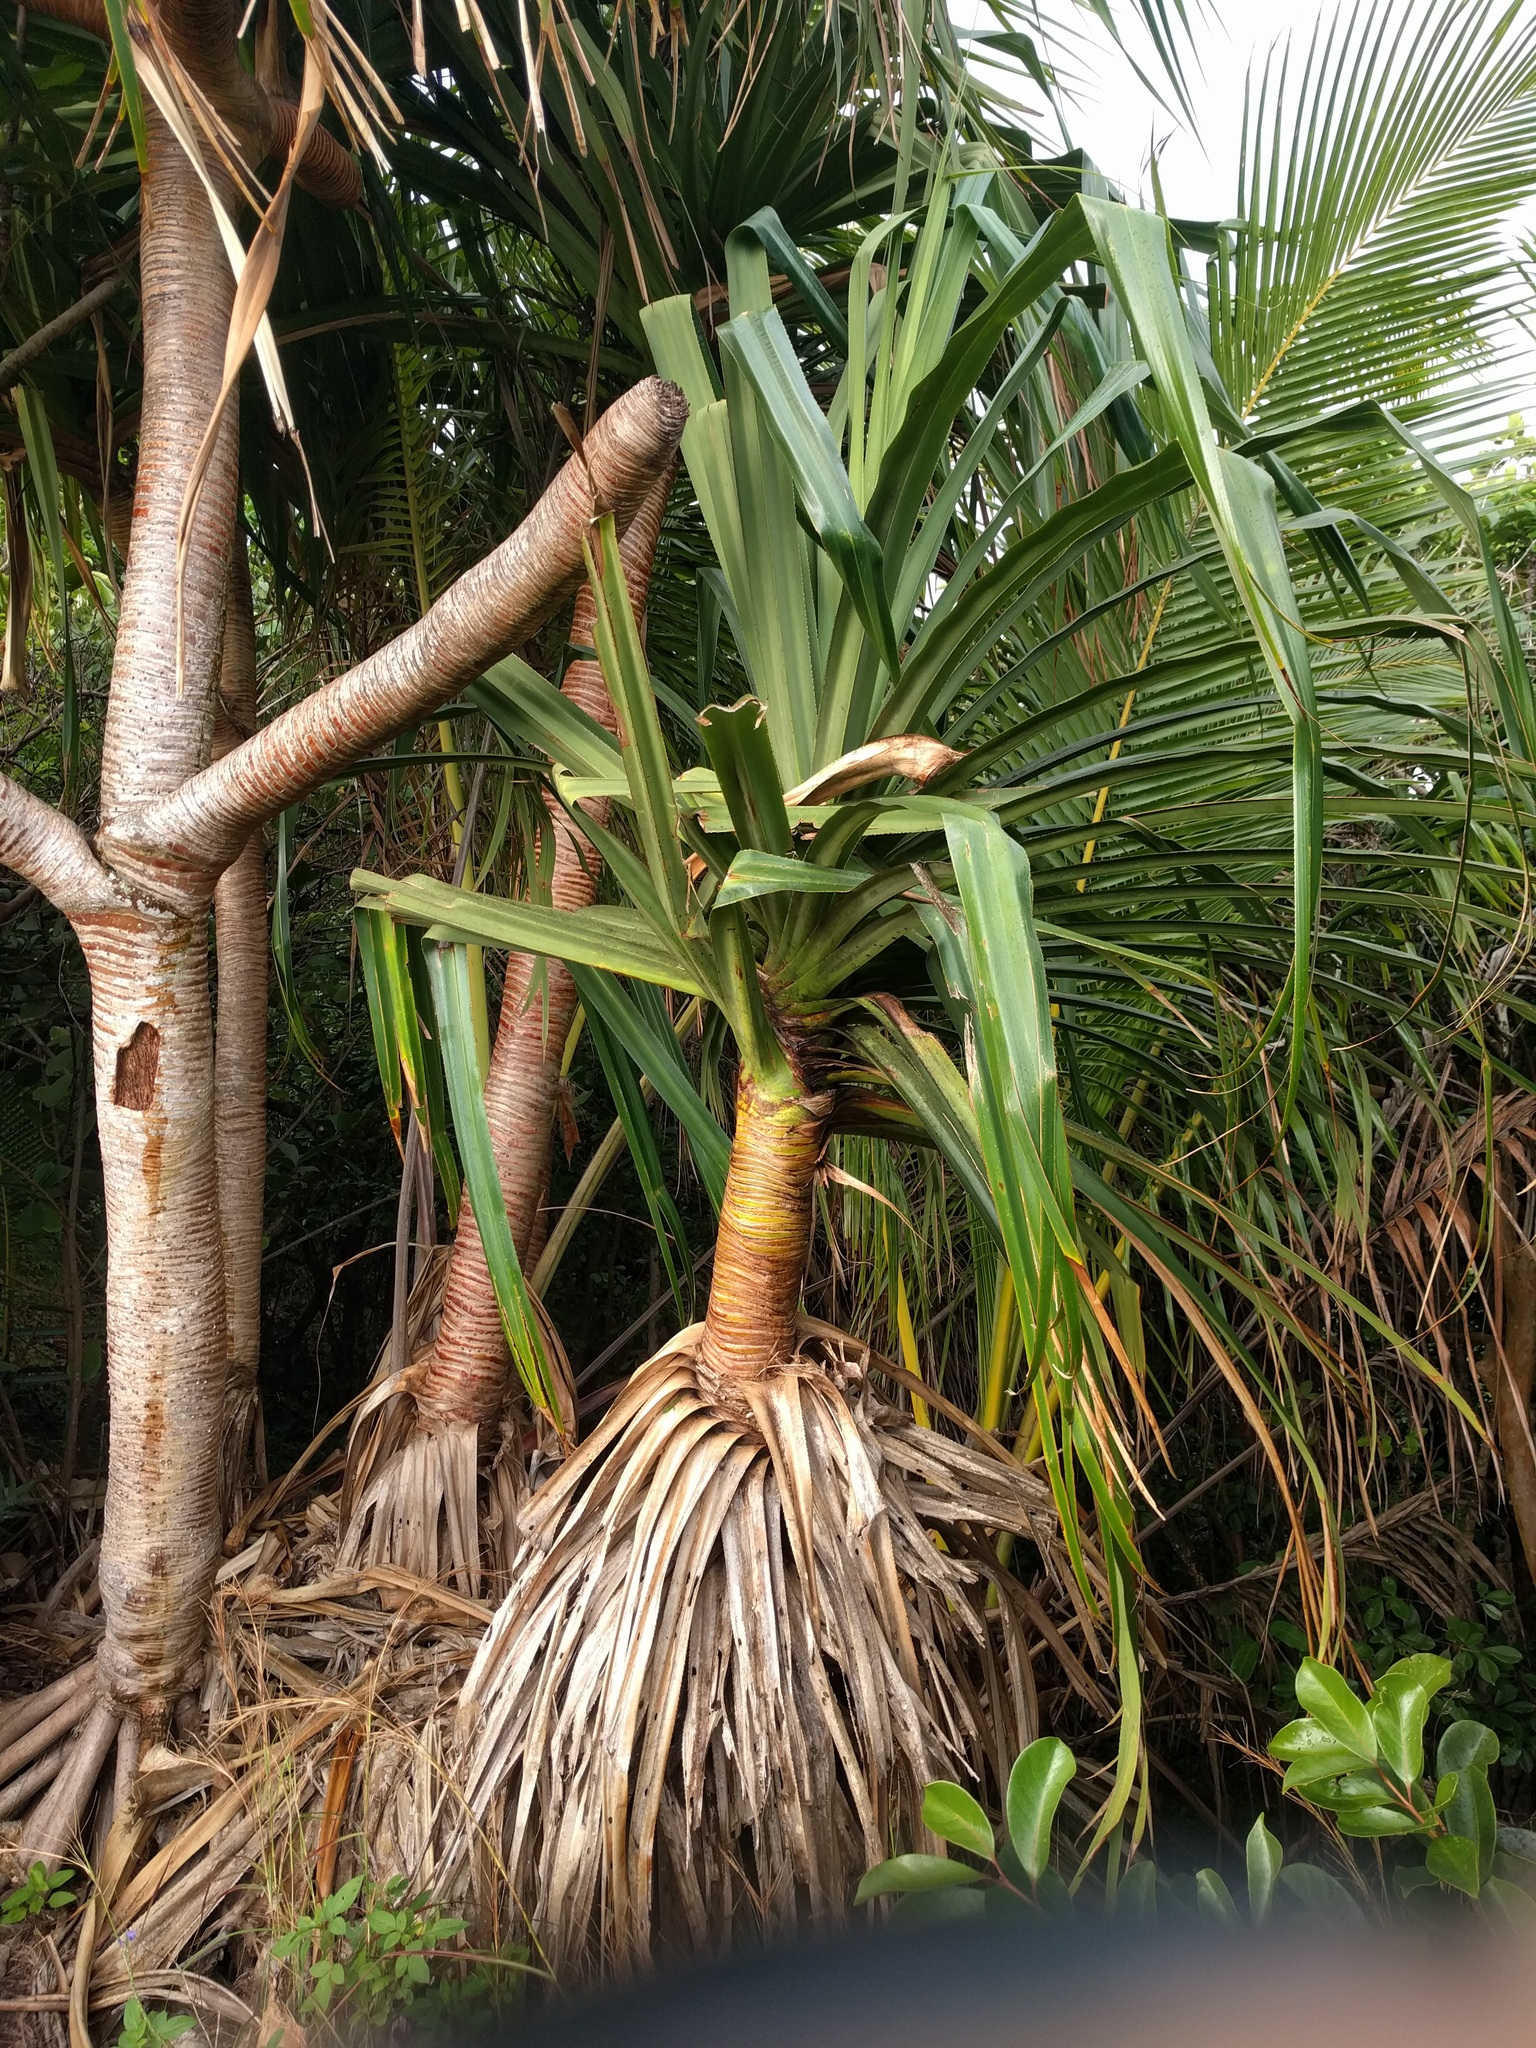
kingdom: Plantae
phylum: Tracheophyta
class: Liliopsida
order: Pandanales
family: Pandanaceae
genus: Pandanus
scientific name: Pandanus tectorius
